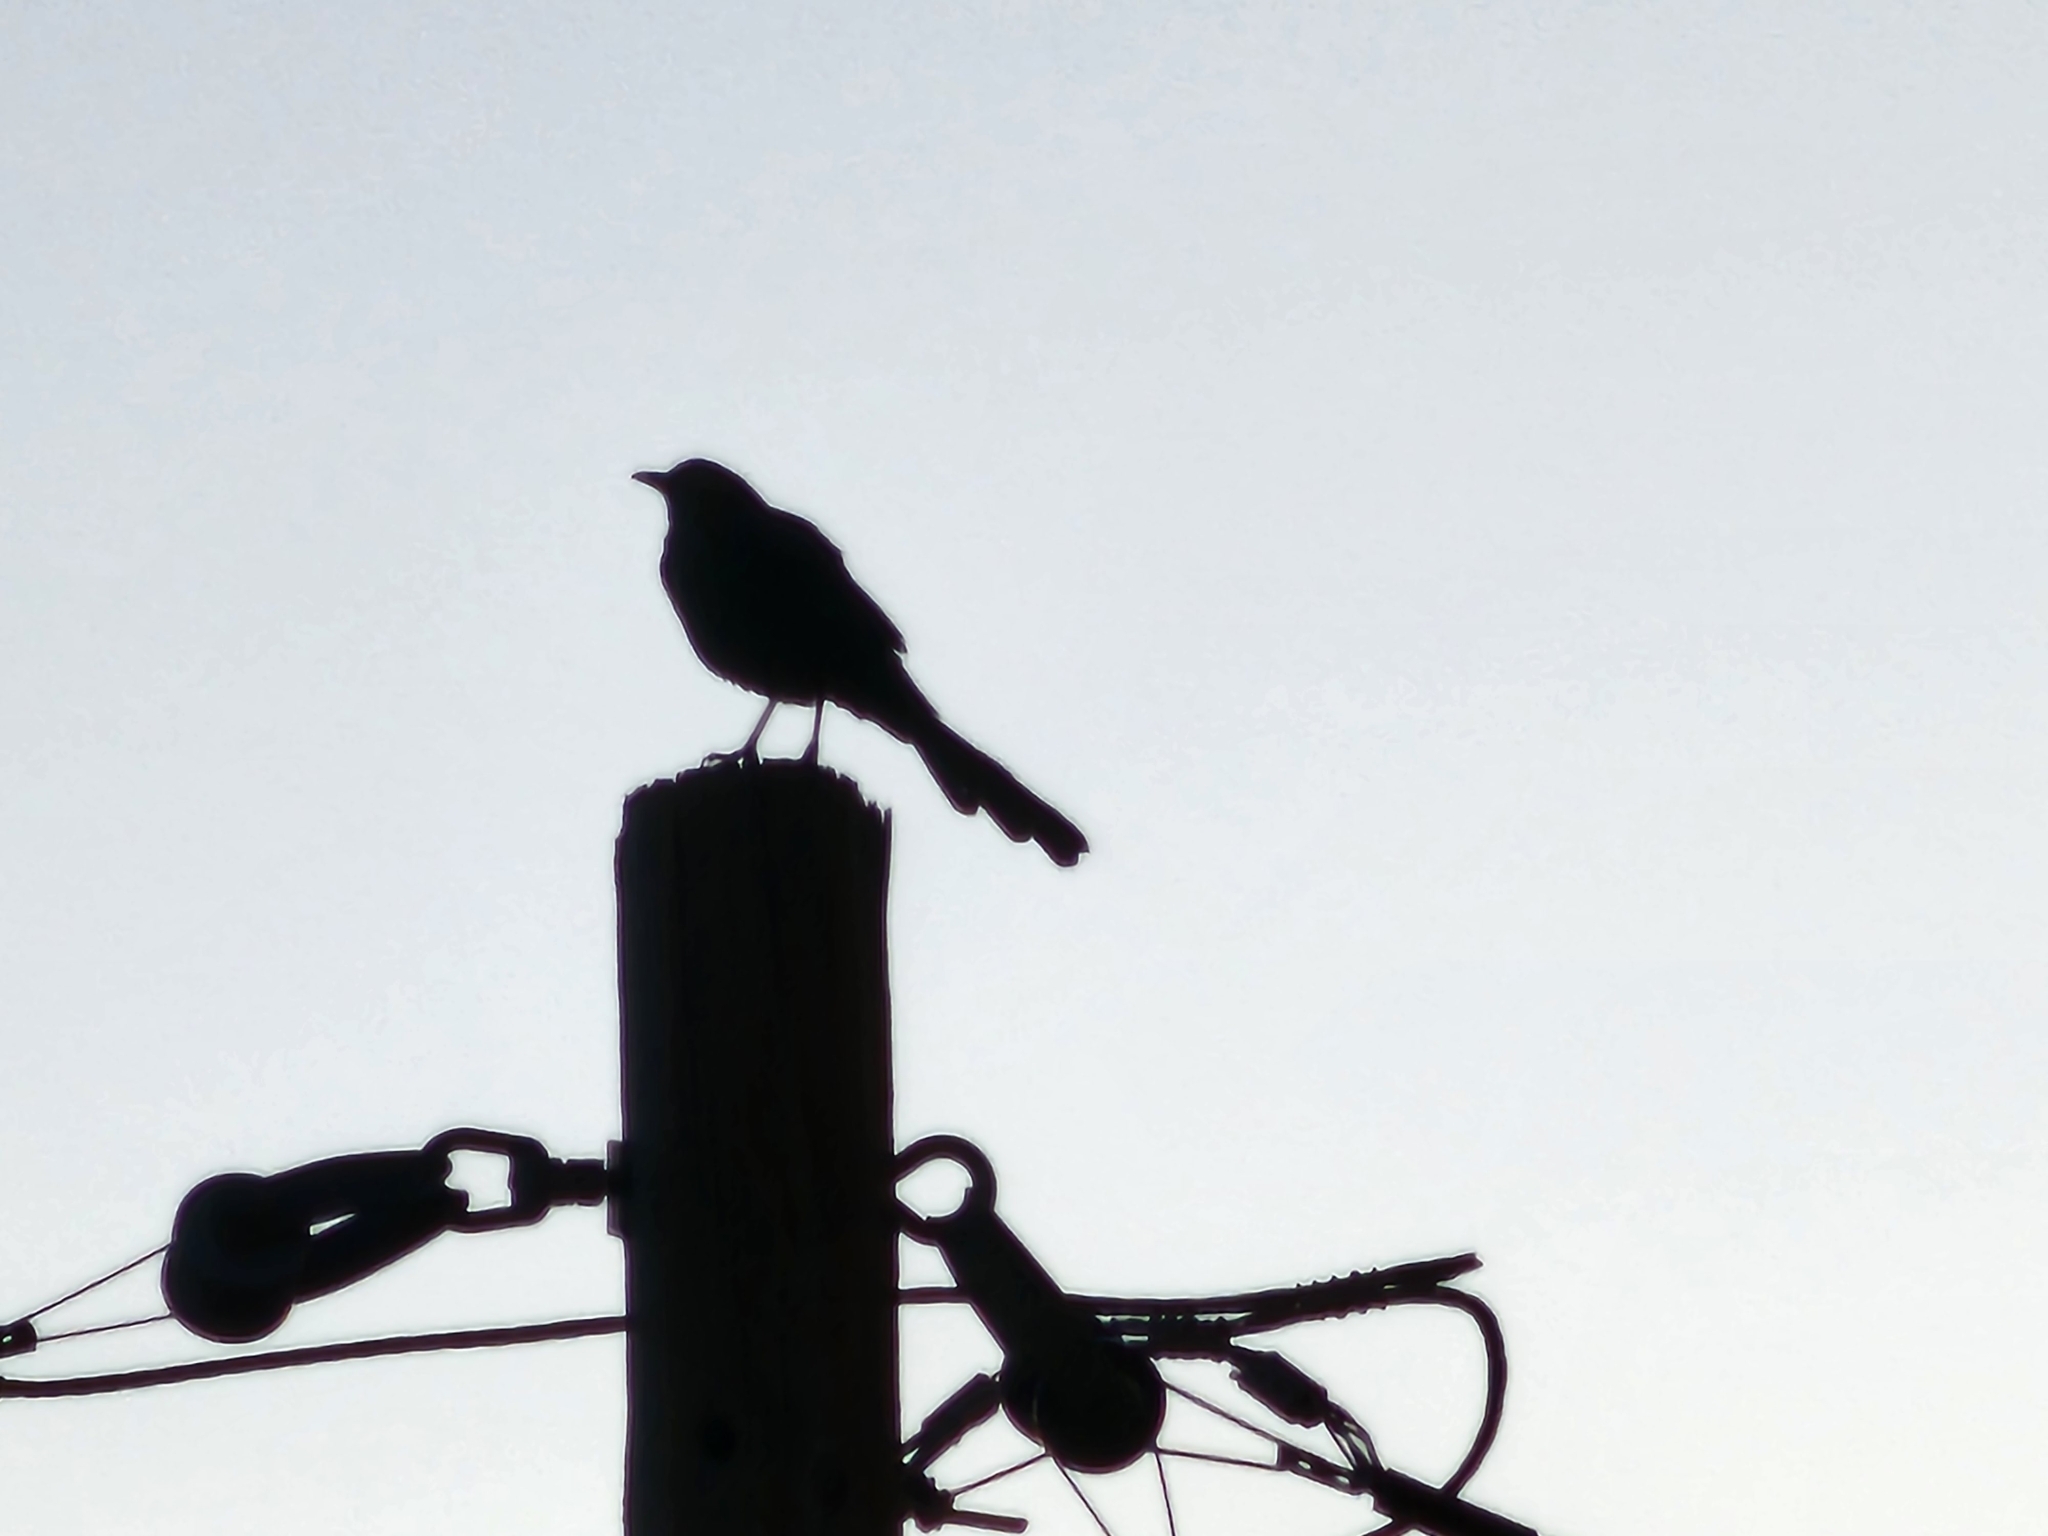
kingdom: Animalia
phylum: Chordata
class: Aves
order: Passeriformes
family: Icteridae
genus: Quiscalus
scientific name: Quiscalus mexicanus
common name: Great-tailed grackle
